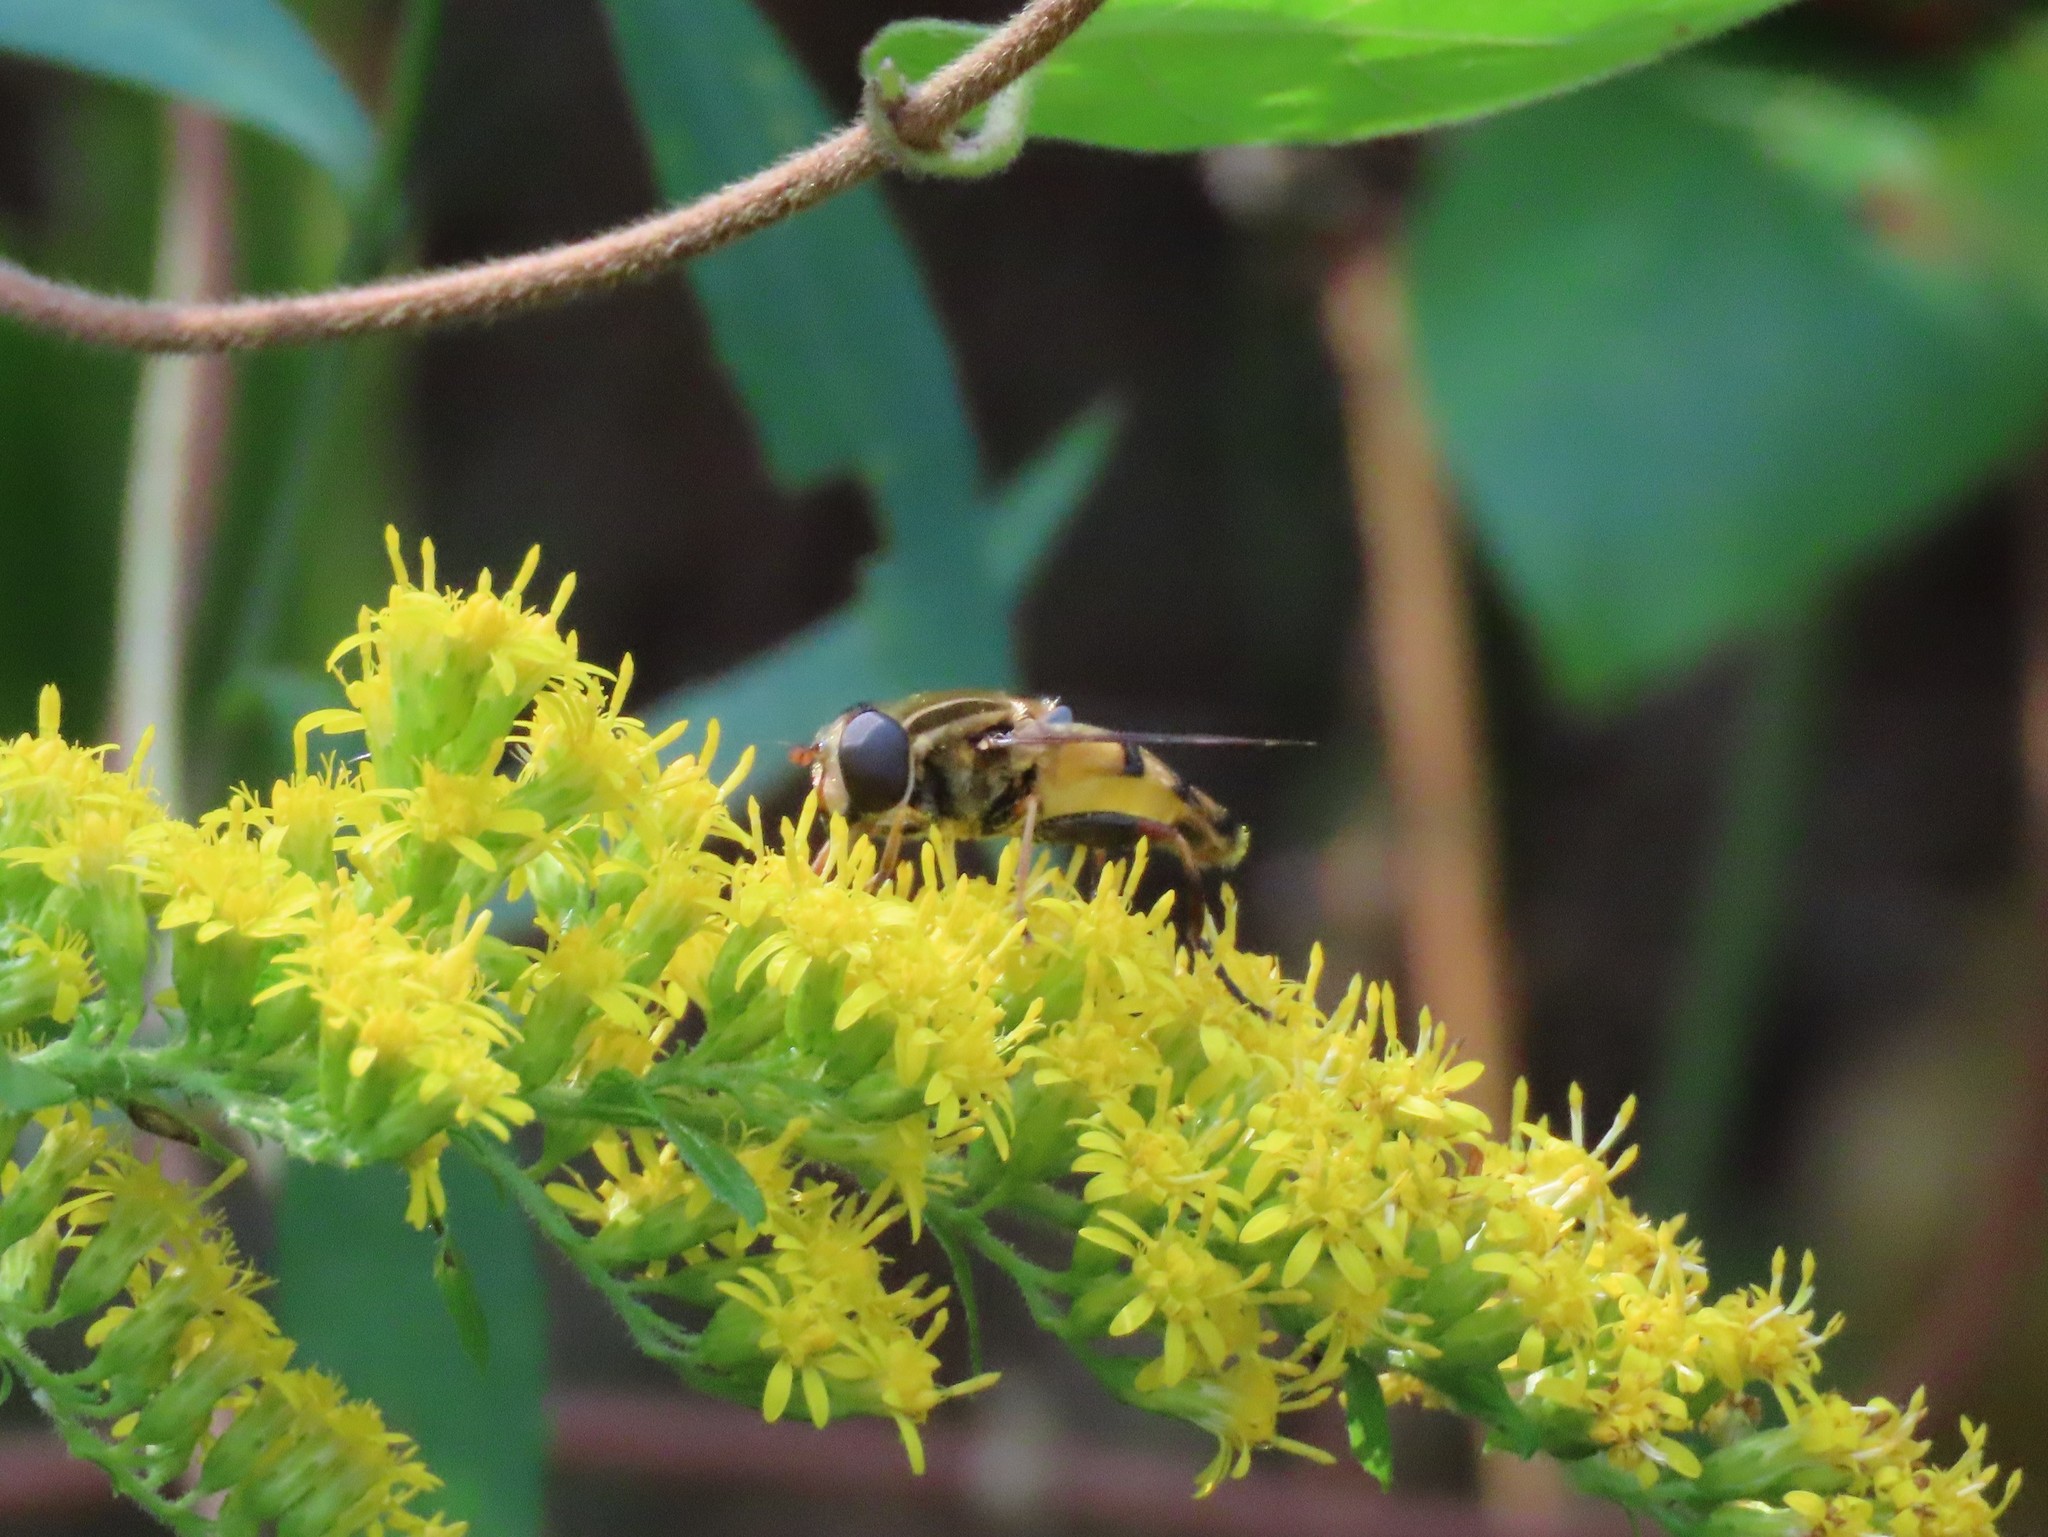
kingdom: Animalia
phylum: Arthropoda
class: Insecta
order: Diptera
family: Syrphidae
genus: Helophilus
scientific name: Helophilus fasciatus
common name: Narrow-headed marsh fly
